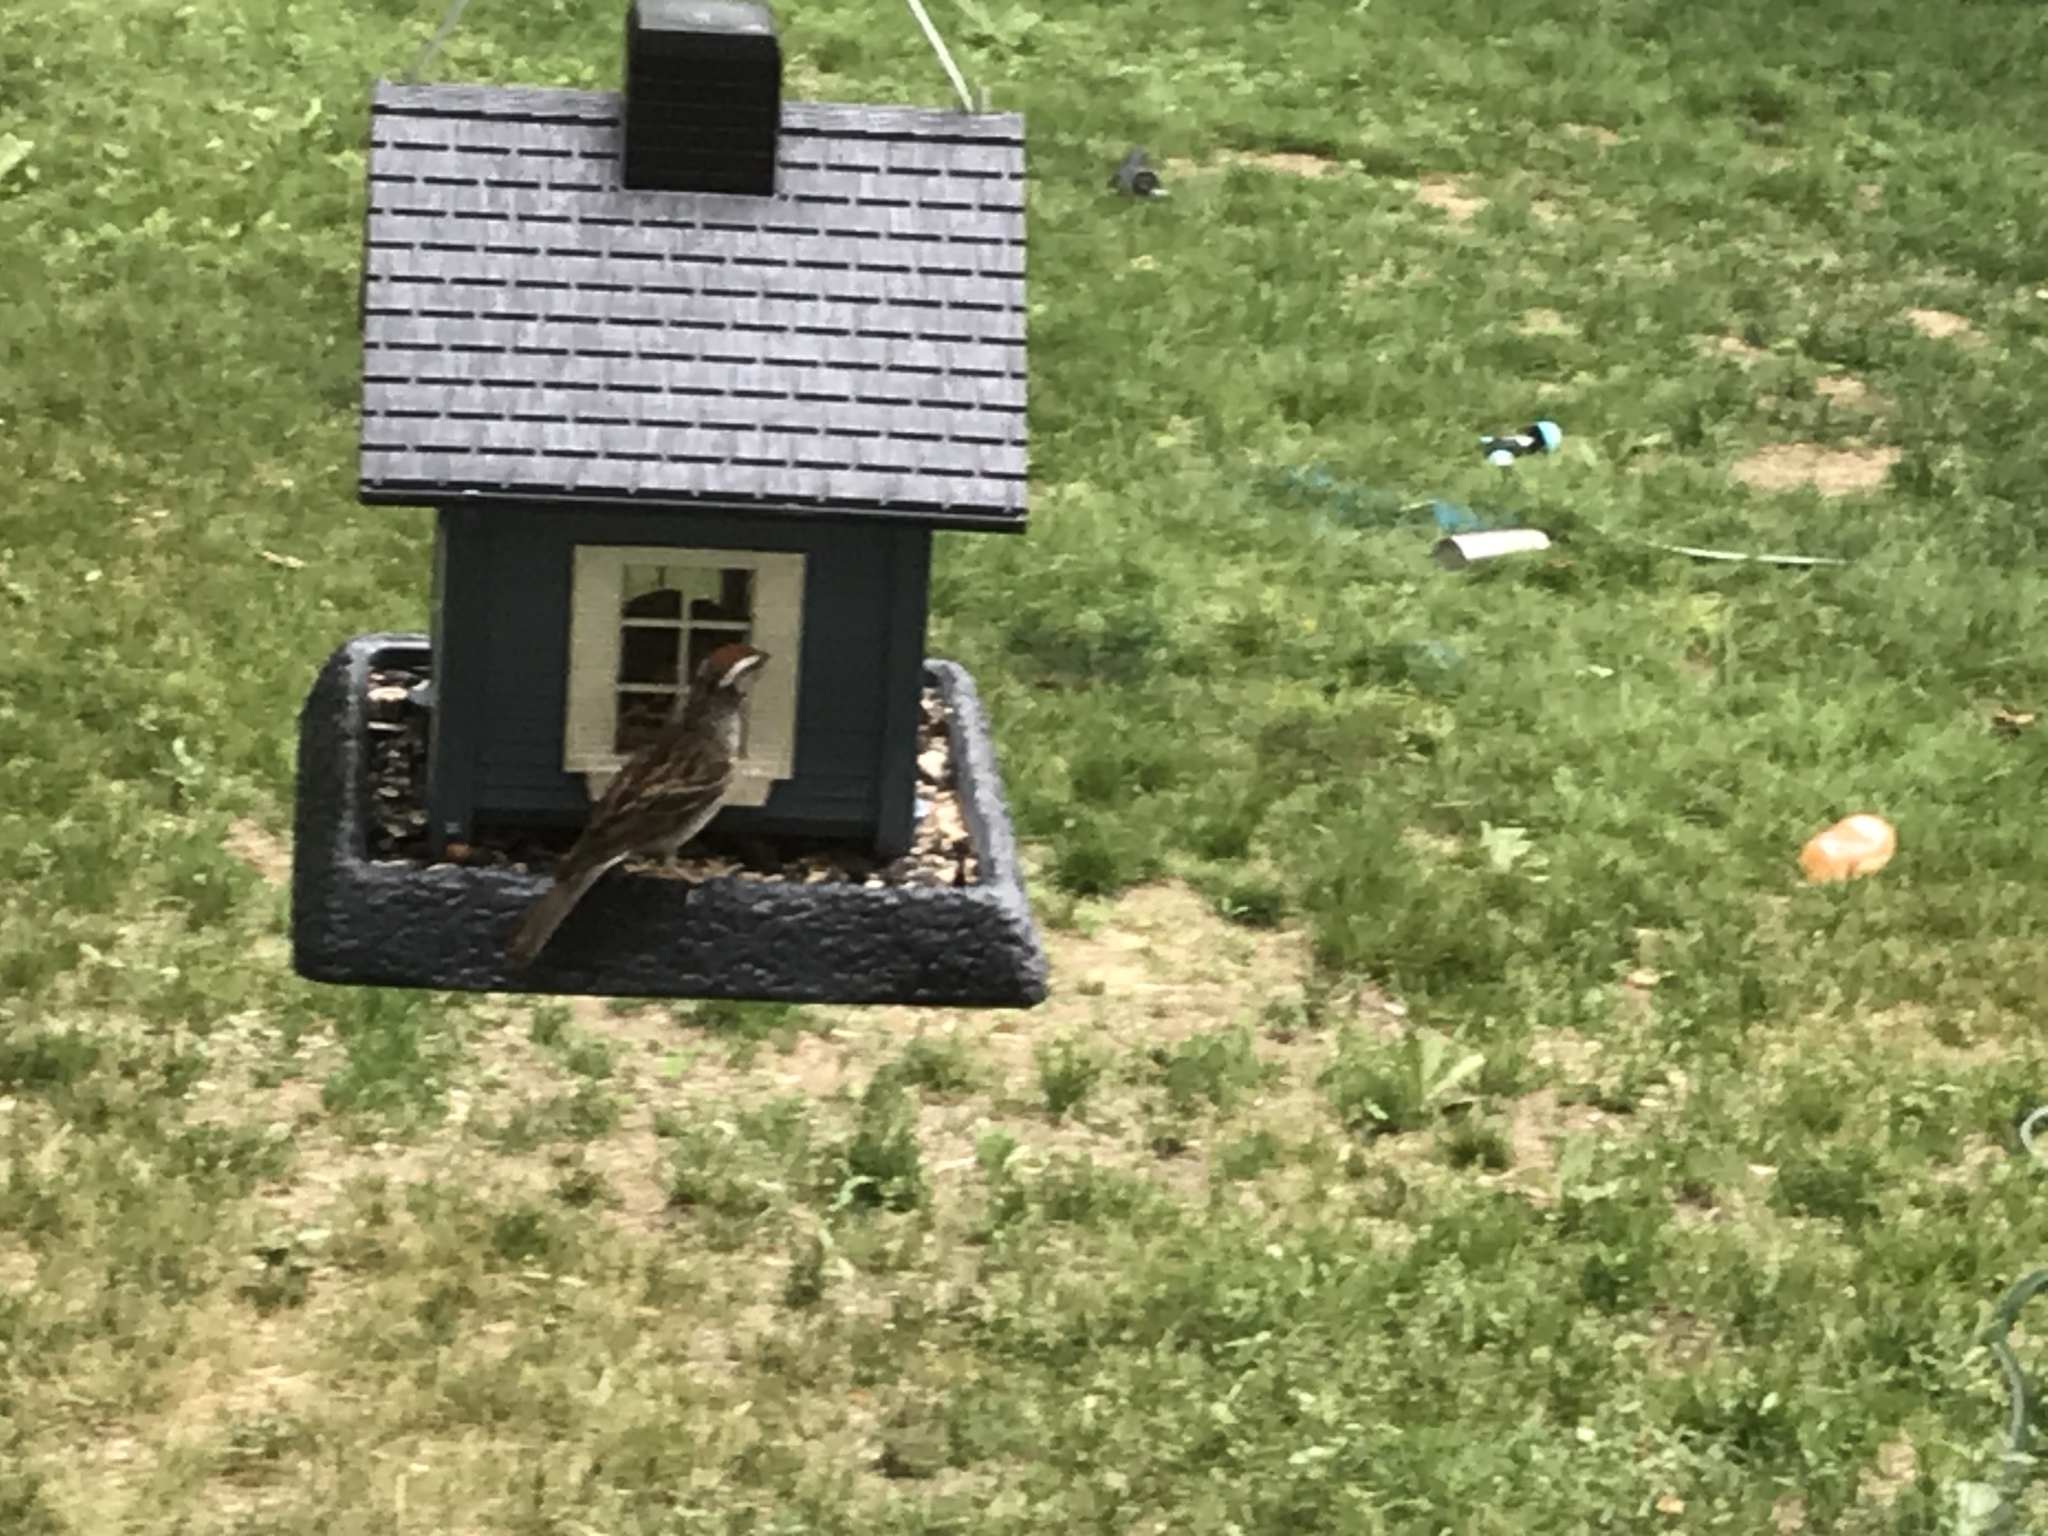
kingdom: Animalia
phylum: Chordata
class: Aves
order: Passeriformes
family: Passerellidae
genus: Spizella
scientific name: Spizella passerina
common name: Chipping sparrow
